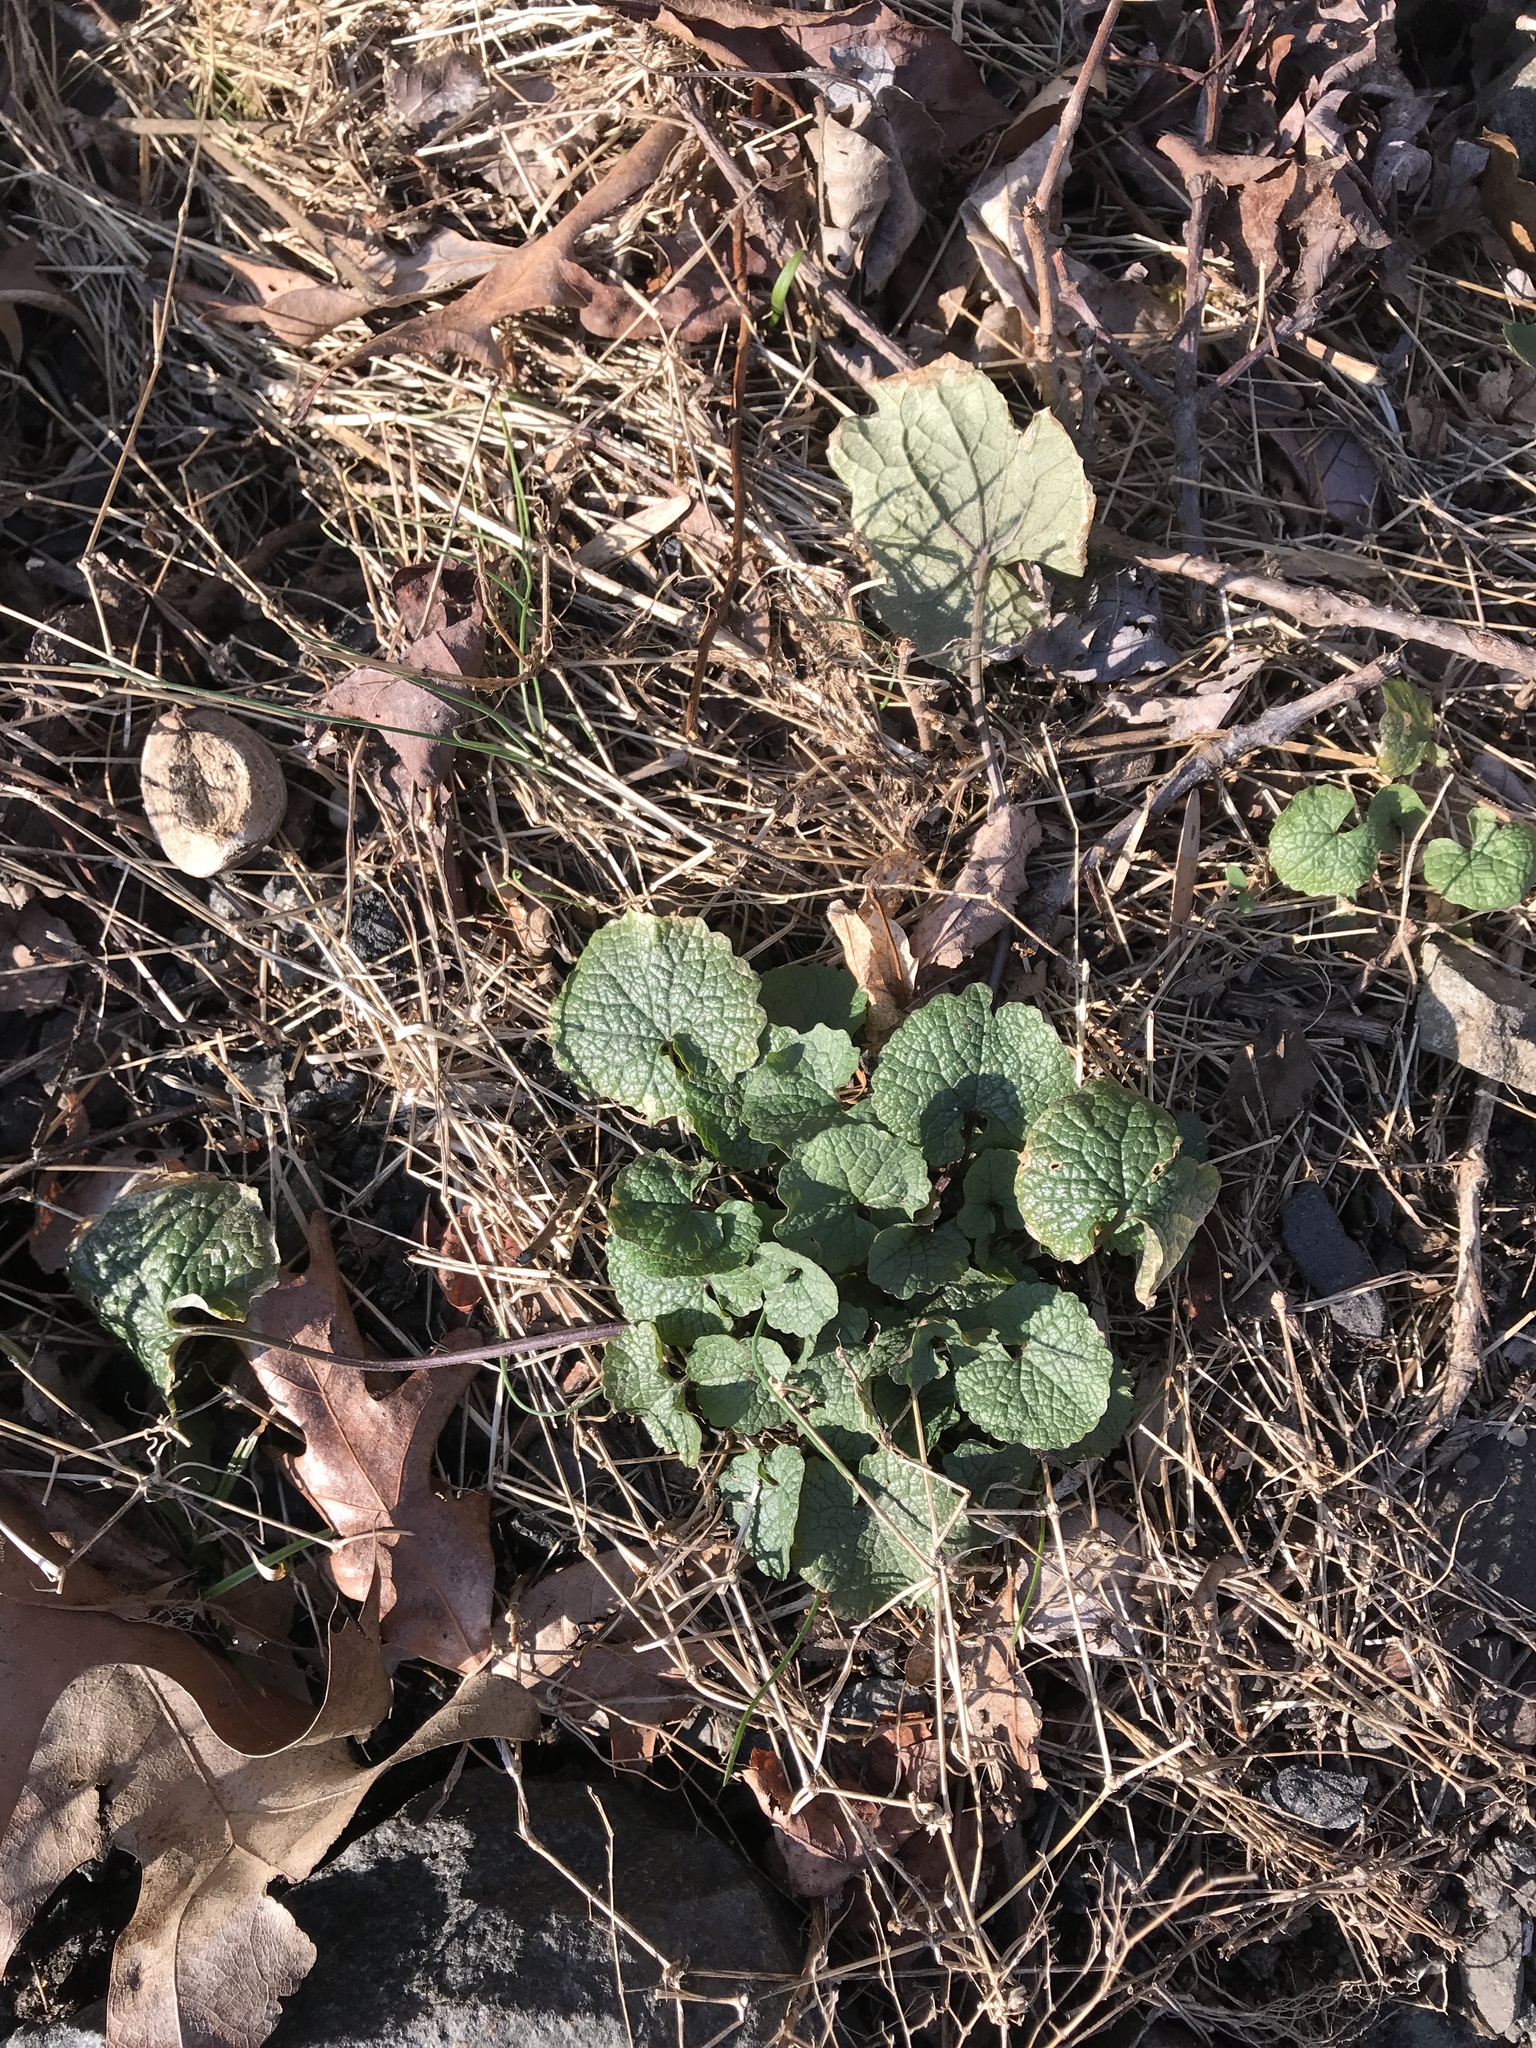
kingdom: Plantae
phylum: Tracheophyta
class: Magnoliopsida
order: Brassicales
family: Brassicaceae
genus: Alliaria
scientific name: Alliaria petiolata
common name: Garlic mustard
